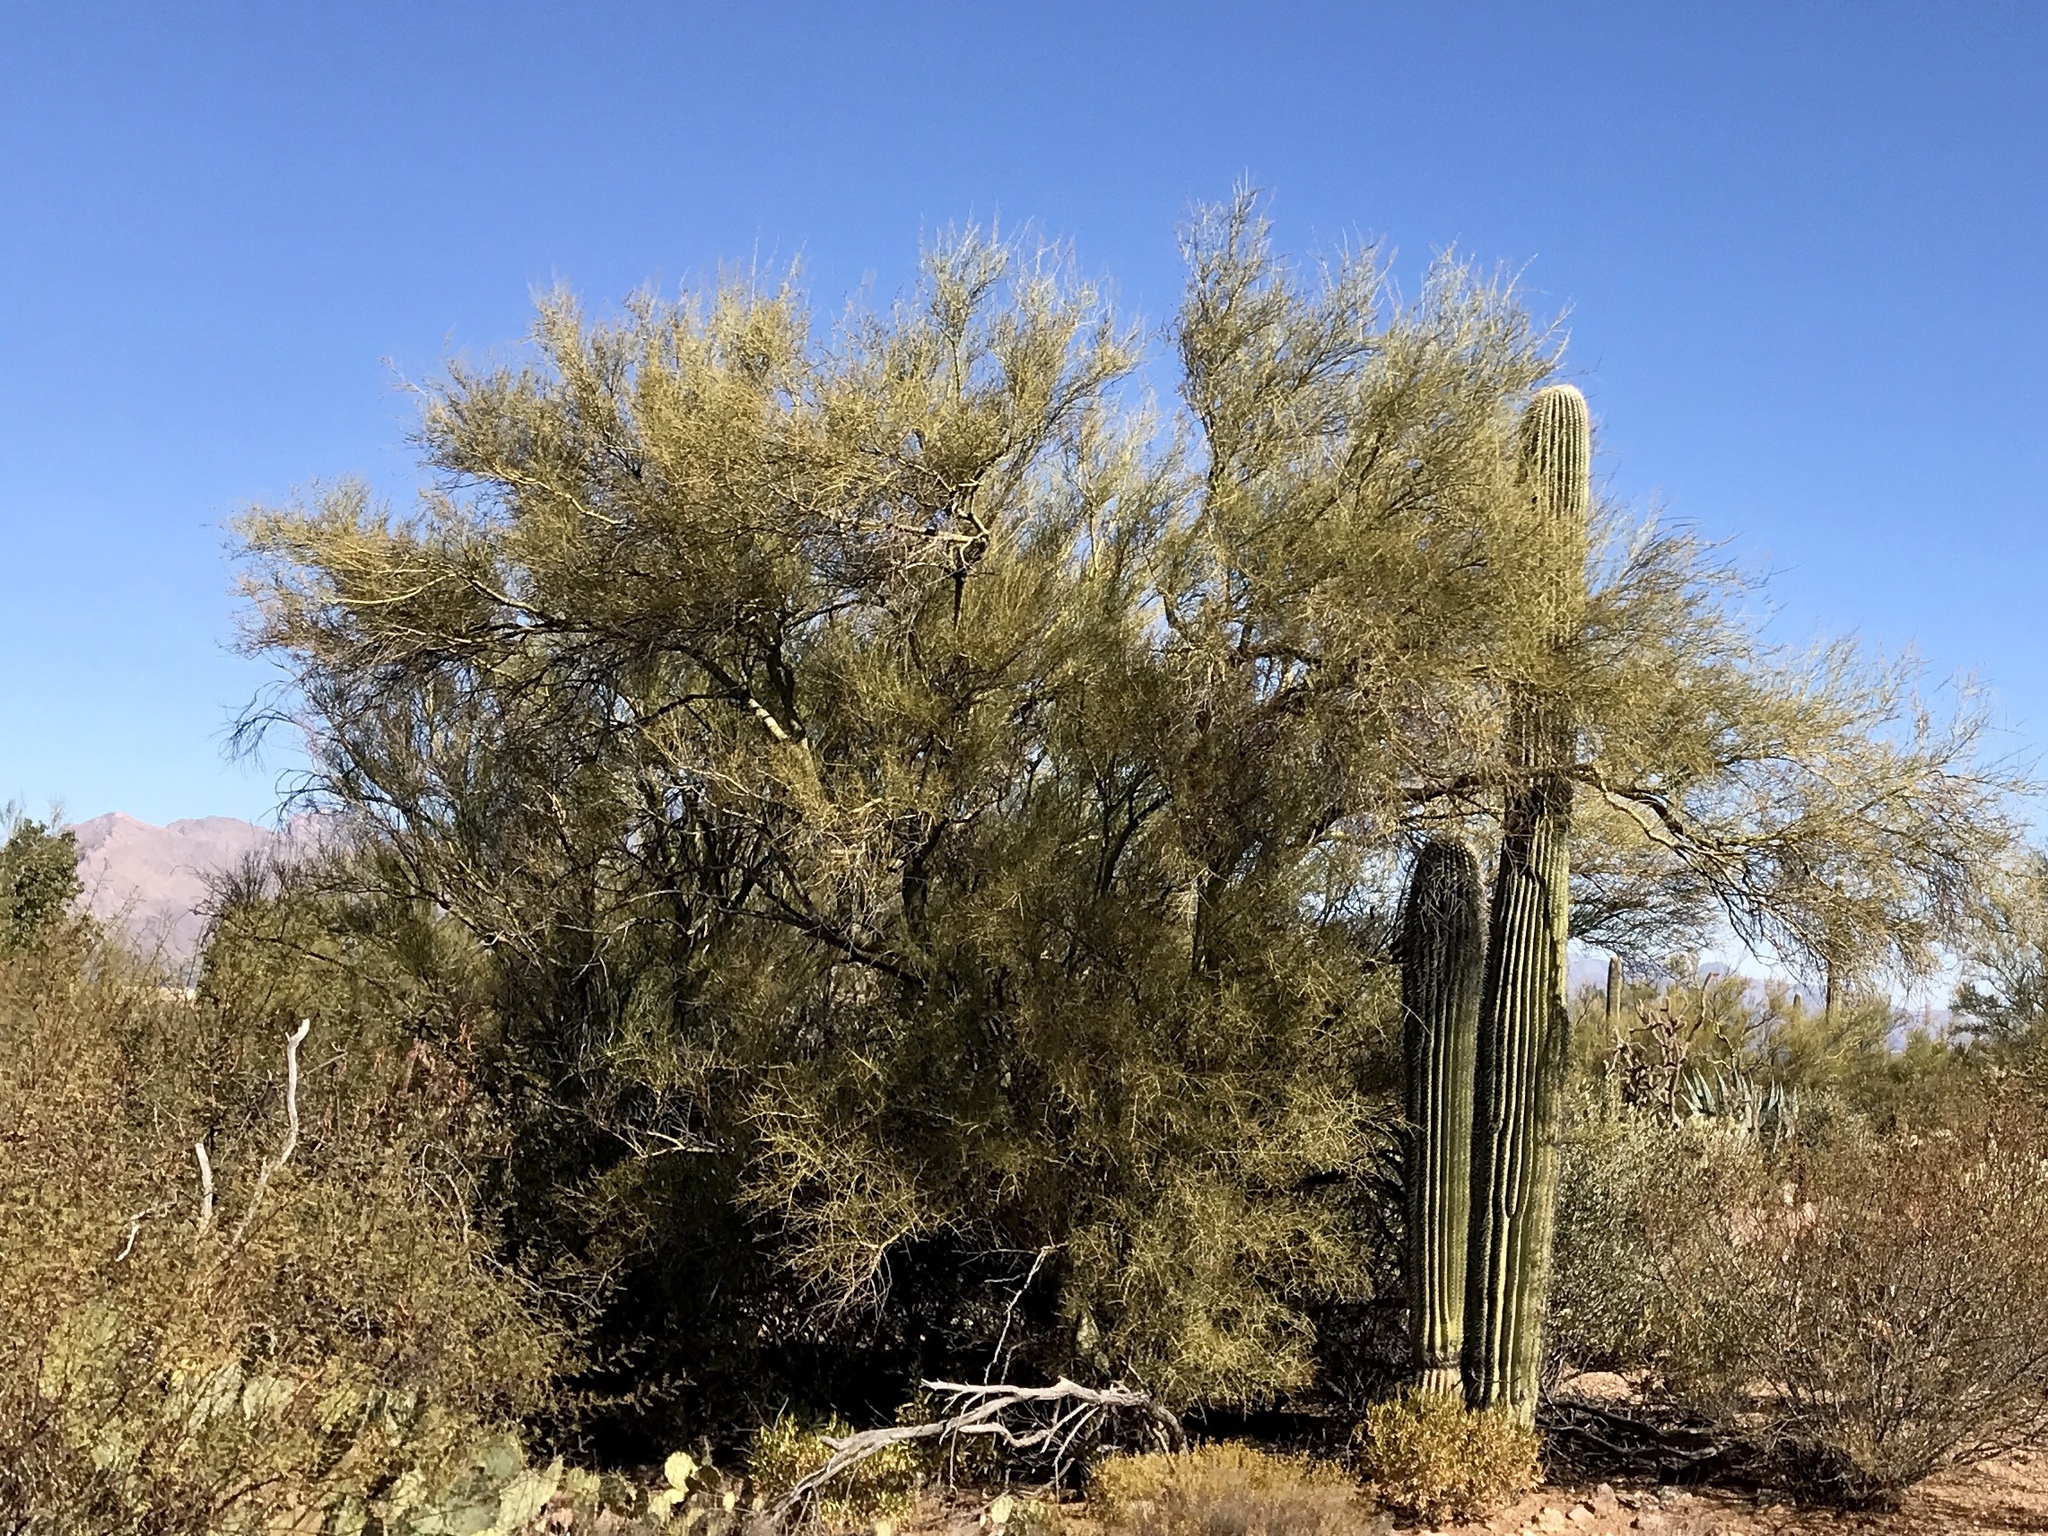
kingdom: Plantae
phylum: Tracheophyta
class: Magnoliopsida
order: Fabales
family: Fabaceae
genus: Parkinsonia
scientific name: Parkinsonia florida
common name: Blue paloverde
